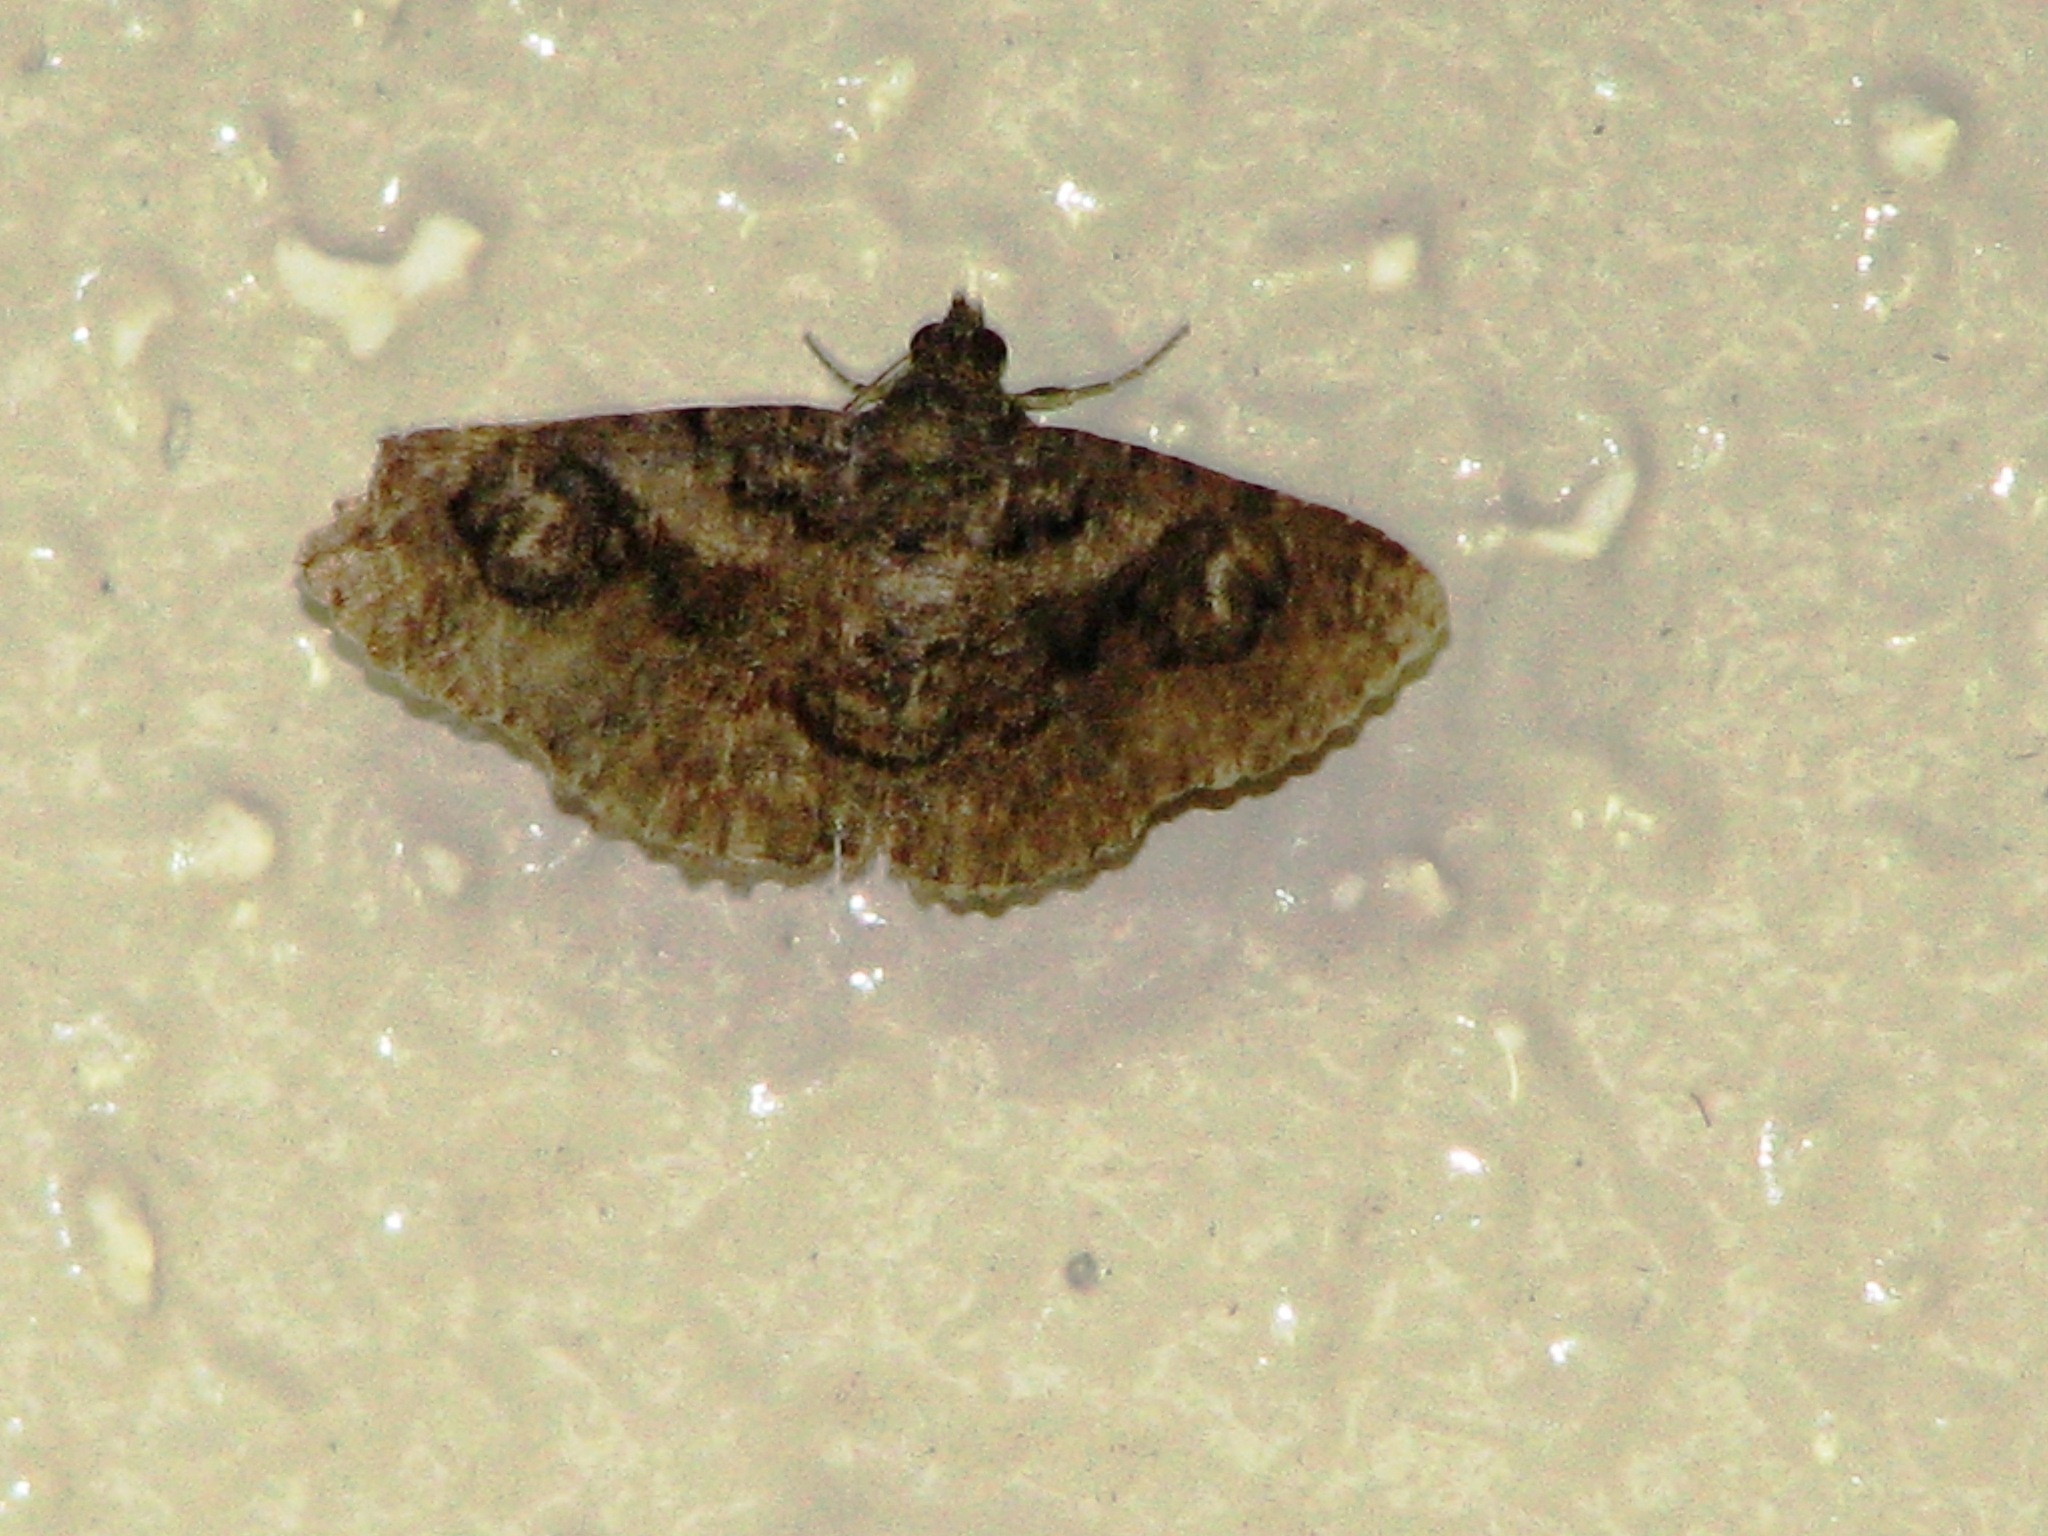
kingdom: Animalia
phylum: Arthropoda
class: Insecta
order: Lepidoptera
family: Erebidae
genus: Toxonprucha
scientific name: Toxonprucha excavata
